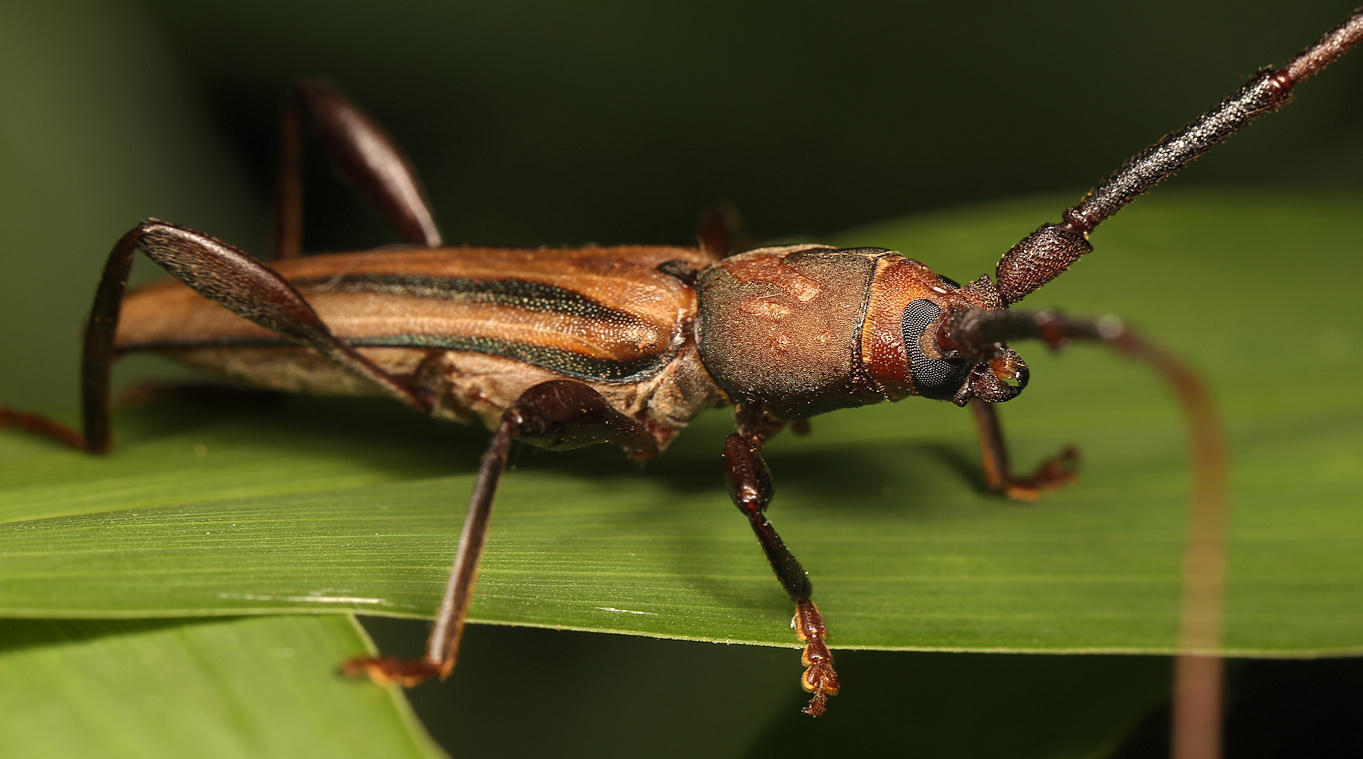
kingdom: Animalia
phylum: Arthropoda
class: Insecta
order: Coleoptera
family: Cerambycidae
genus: Xystrocera
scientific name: Xystrocera dispar
